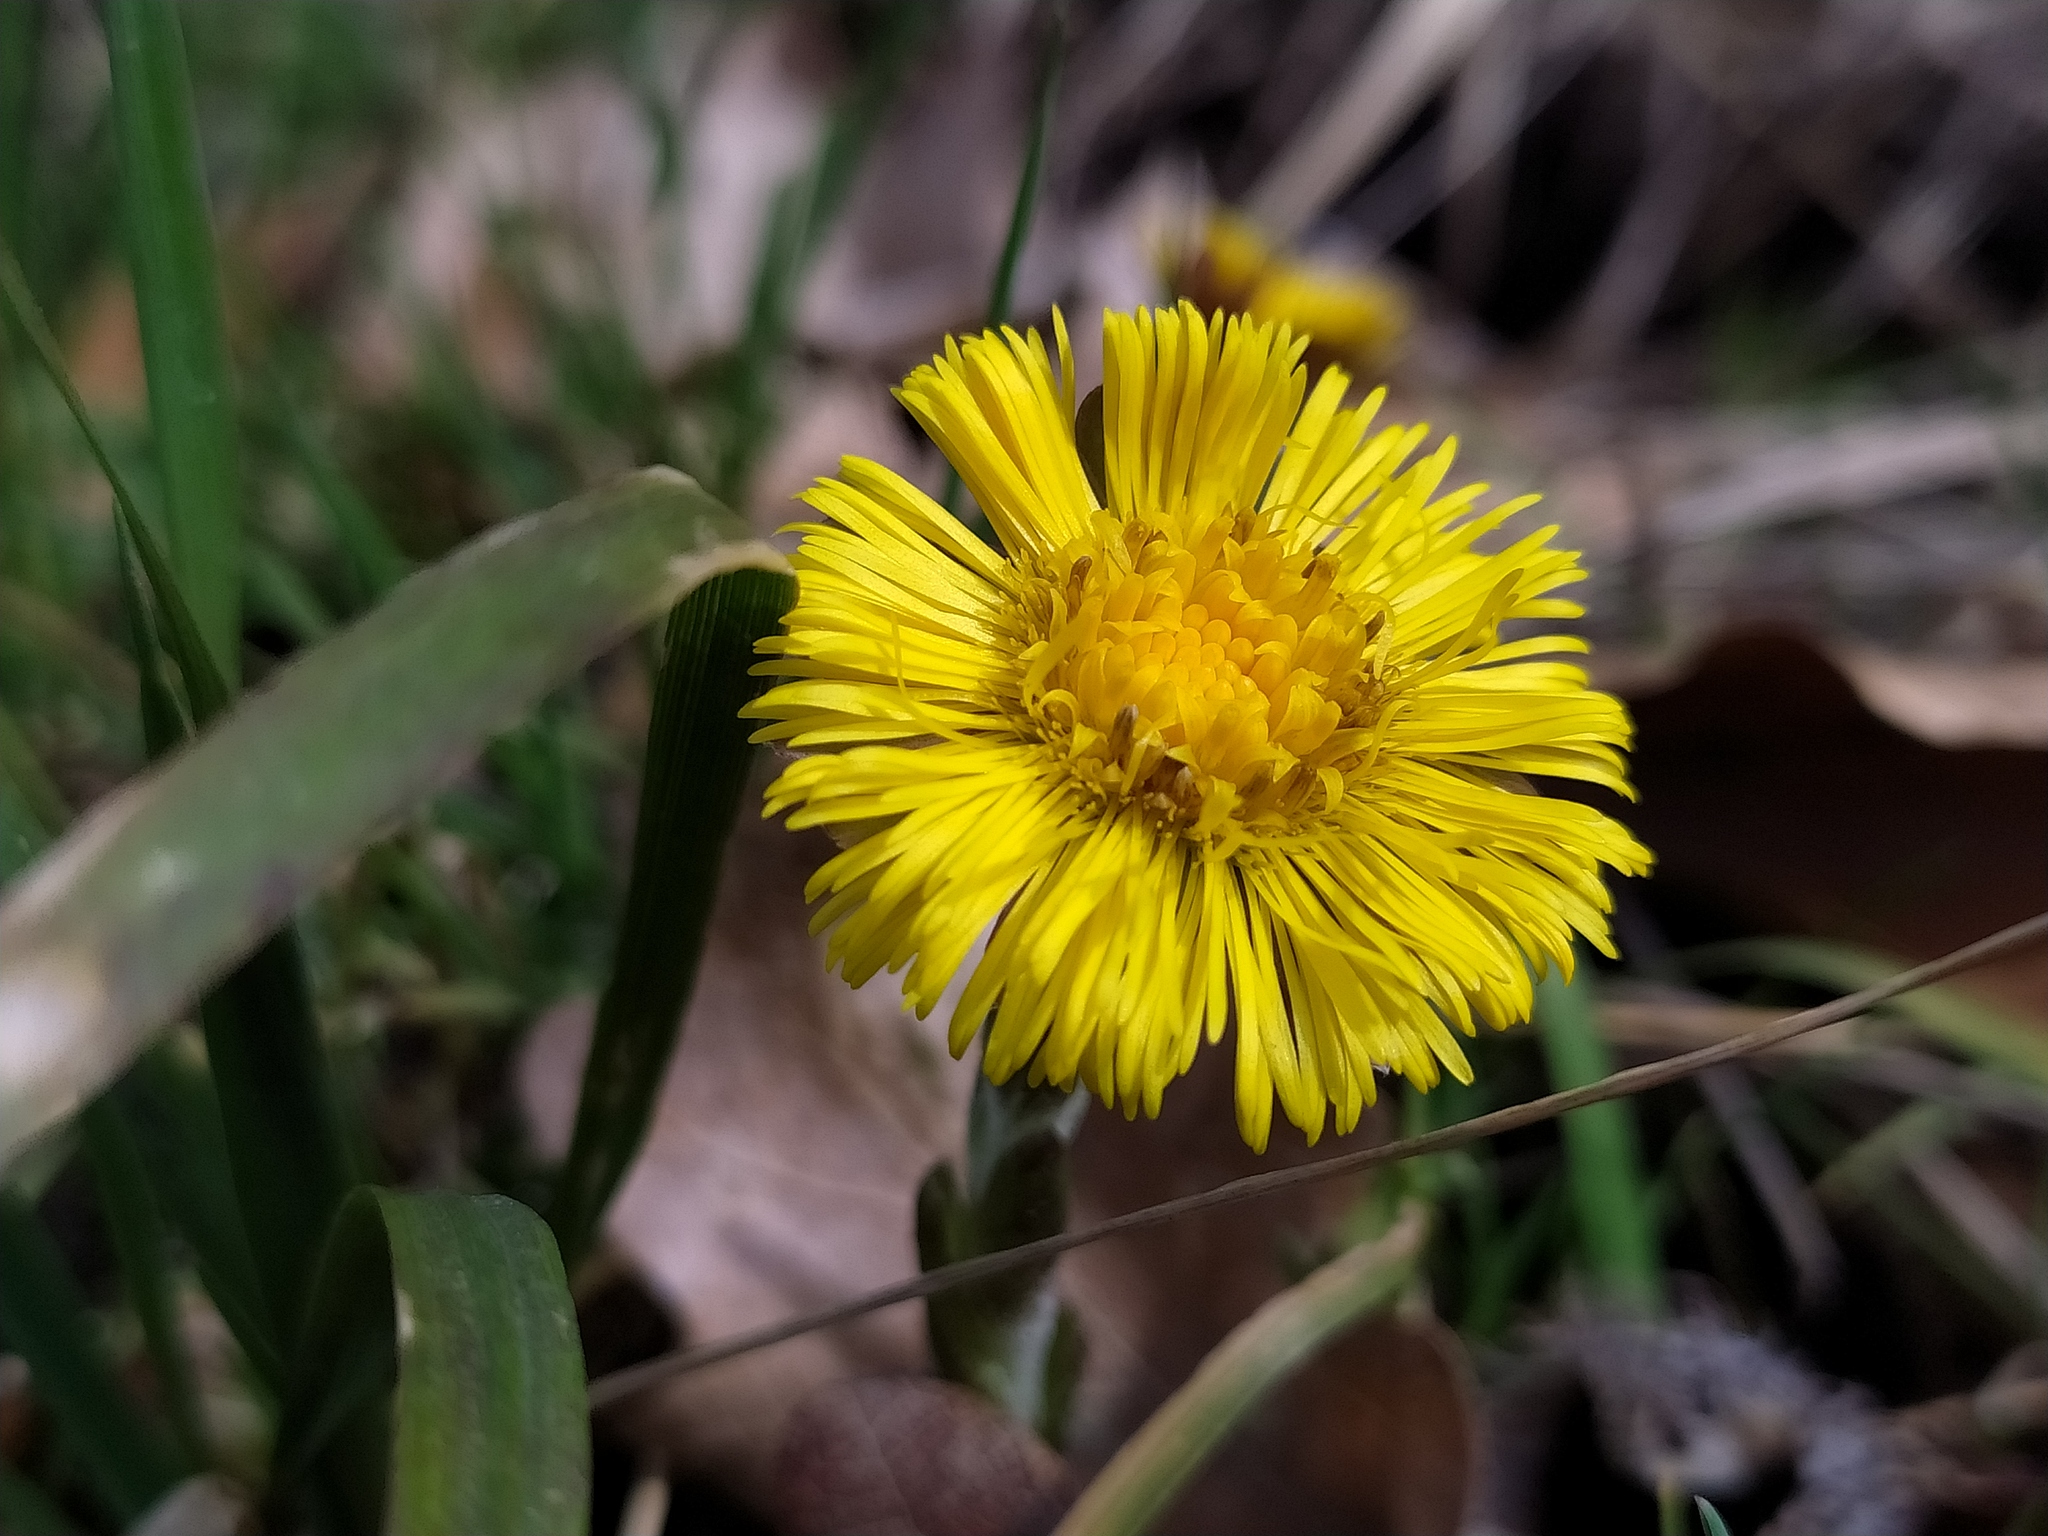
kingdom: Plantae
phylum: Tracheophyta
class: Magnoliopsida
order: Asterales
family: Asteraceae
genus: Tussilago
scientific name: Tussilago farfara
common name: Coltsfoot
